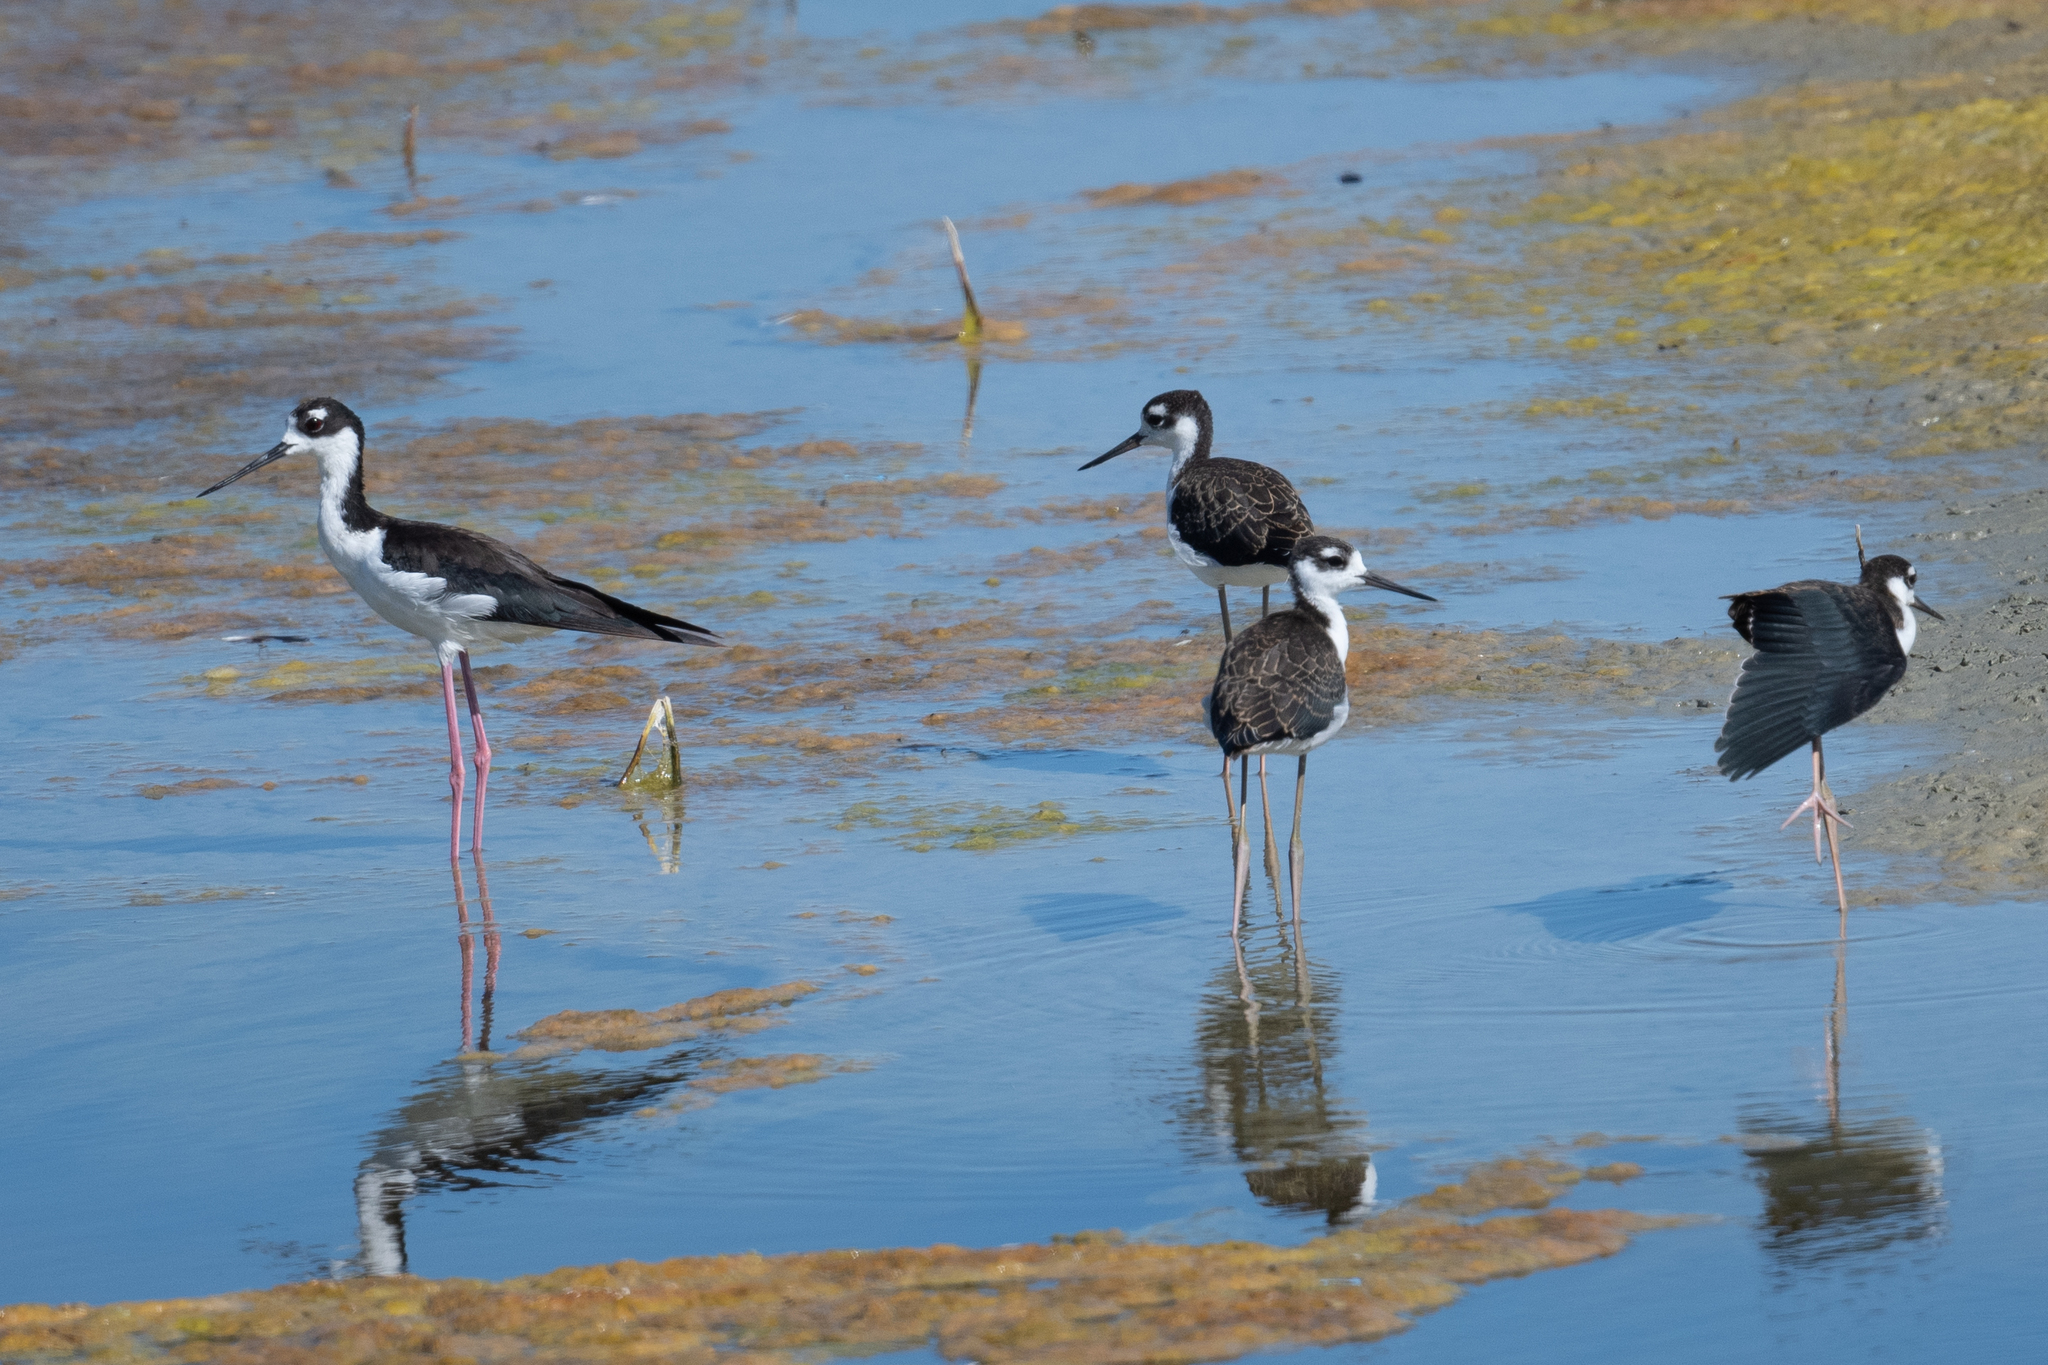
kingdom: Animalia
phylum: Chordata
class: Aves
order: Charadriiformes
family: Recurvirostridae
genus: Himantopus
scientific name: Himantopus mexicanus
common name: Black-necked stilt
